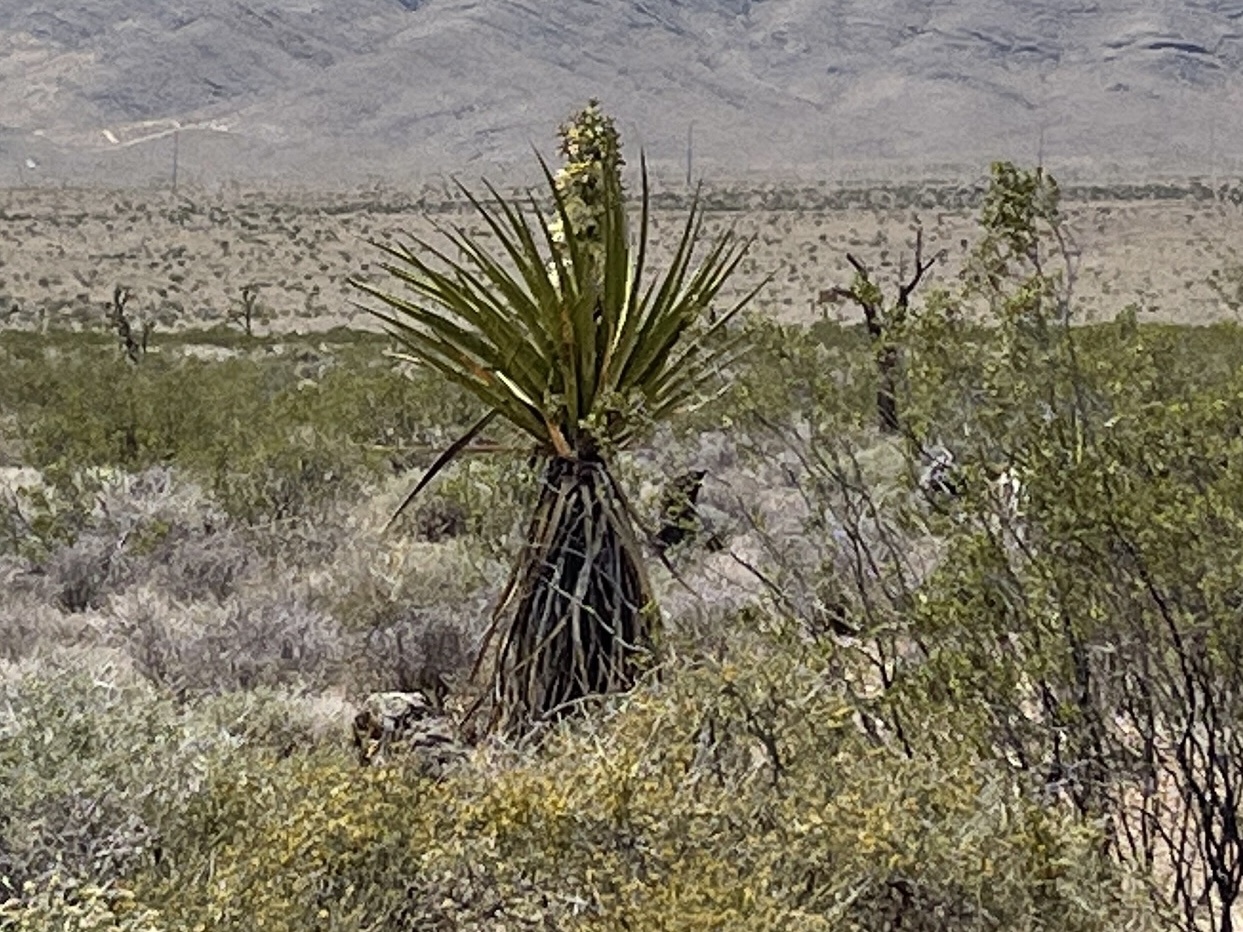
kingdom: Plantae
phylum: Tracheophyta
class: Liliopsida
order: Asparagales
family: Asparagaceae
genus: Yucca
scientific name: Yucca schidigera
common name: Mojave yucca
